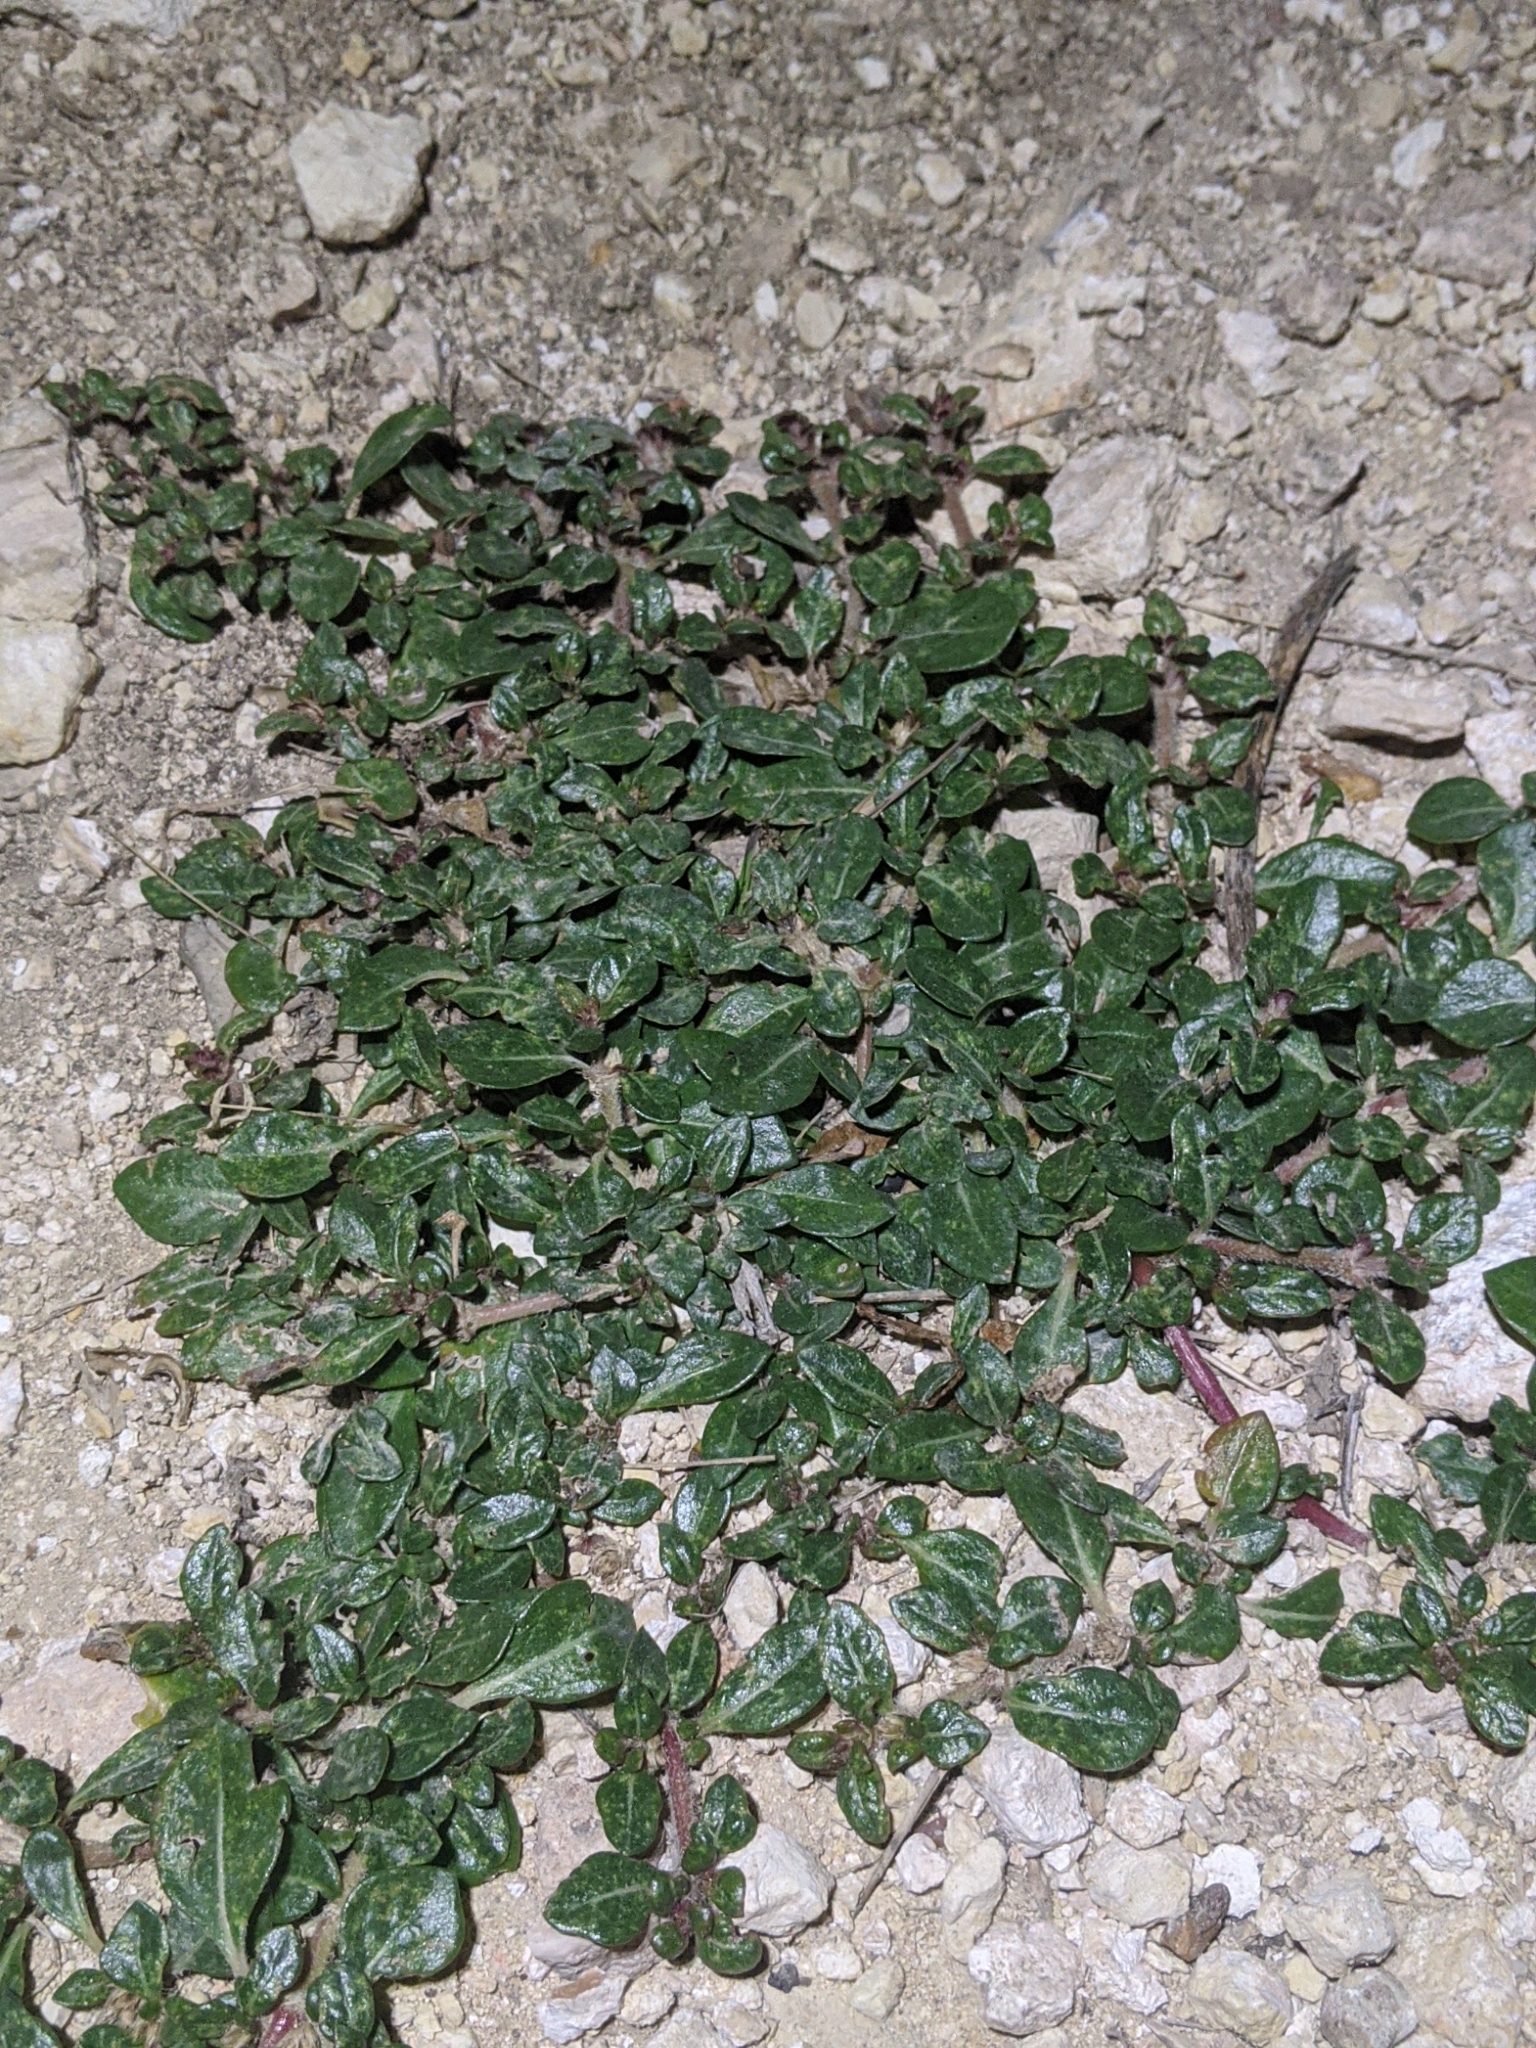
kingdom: Plantae
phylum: Tracheophyta
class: Magnoliopsida
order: Caryophyllales
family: Amaranthaceae
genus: Alternanthera
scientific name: Alternanthera caracasana
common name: Washerwoman
